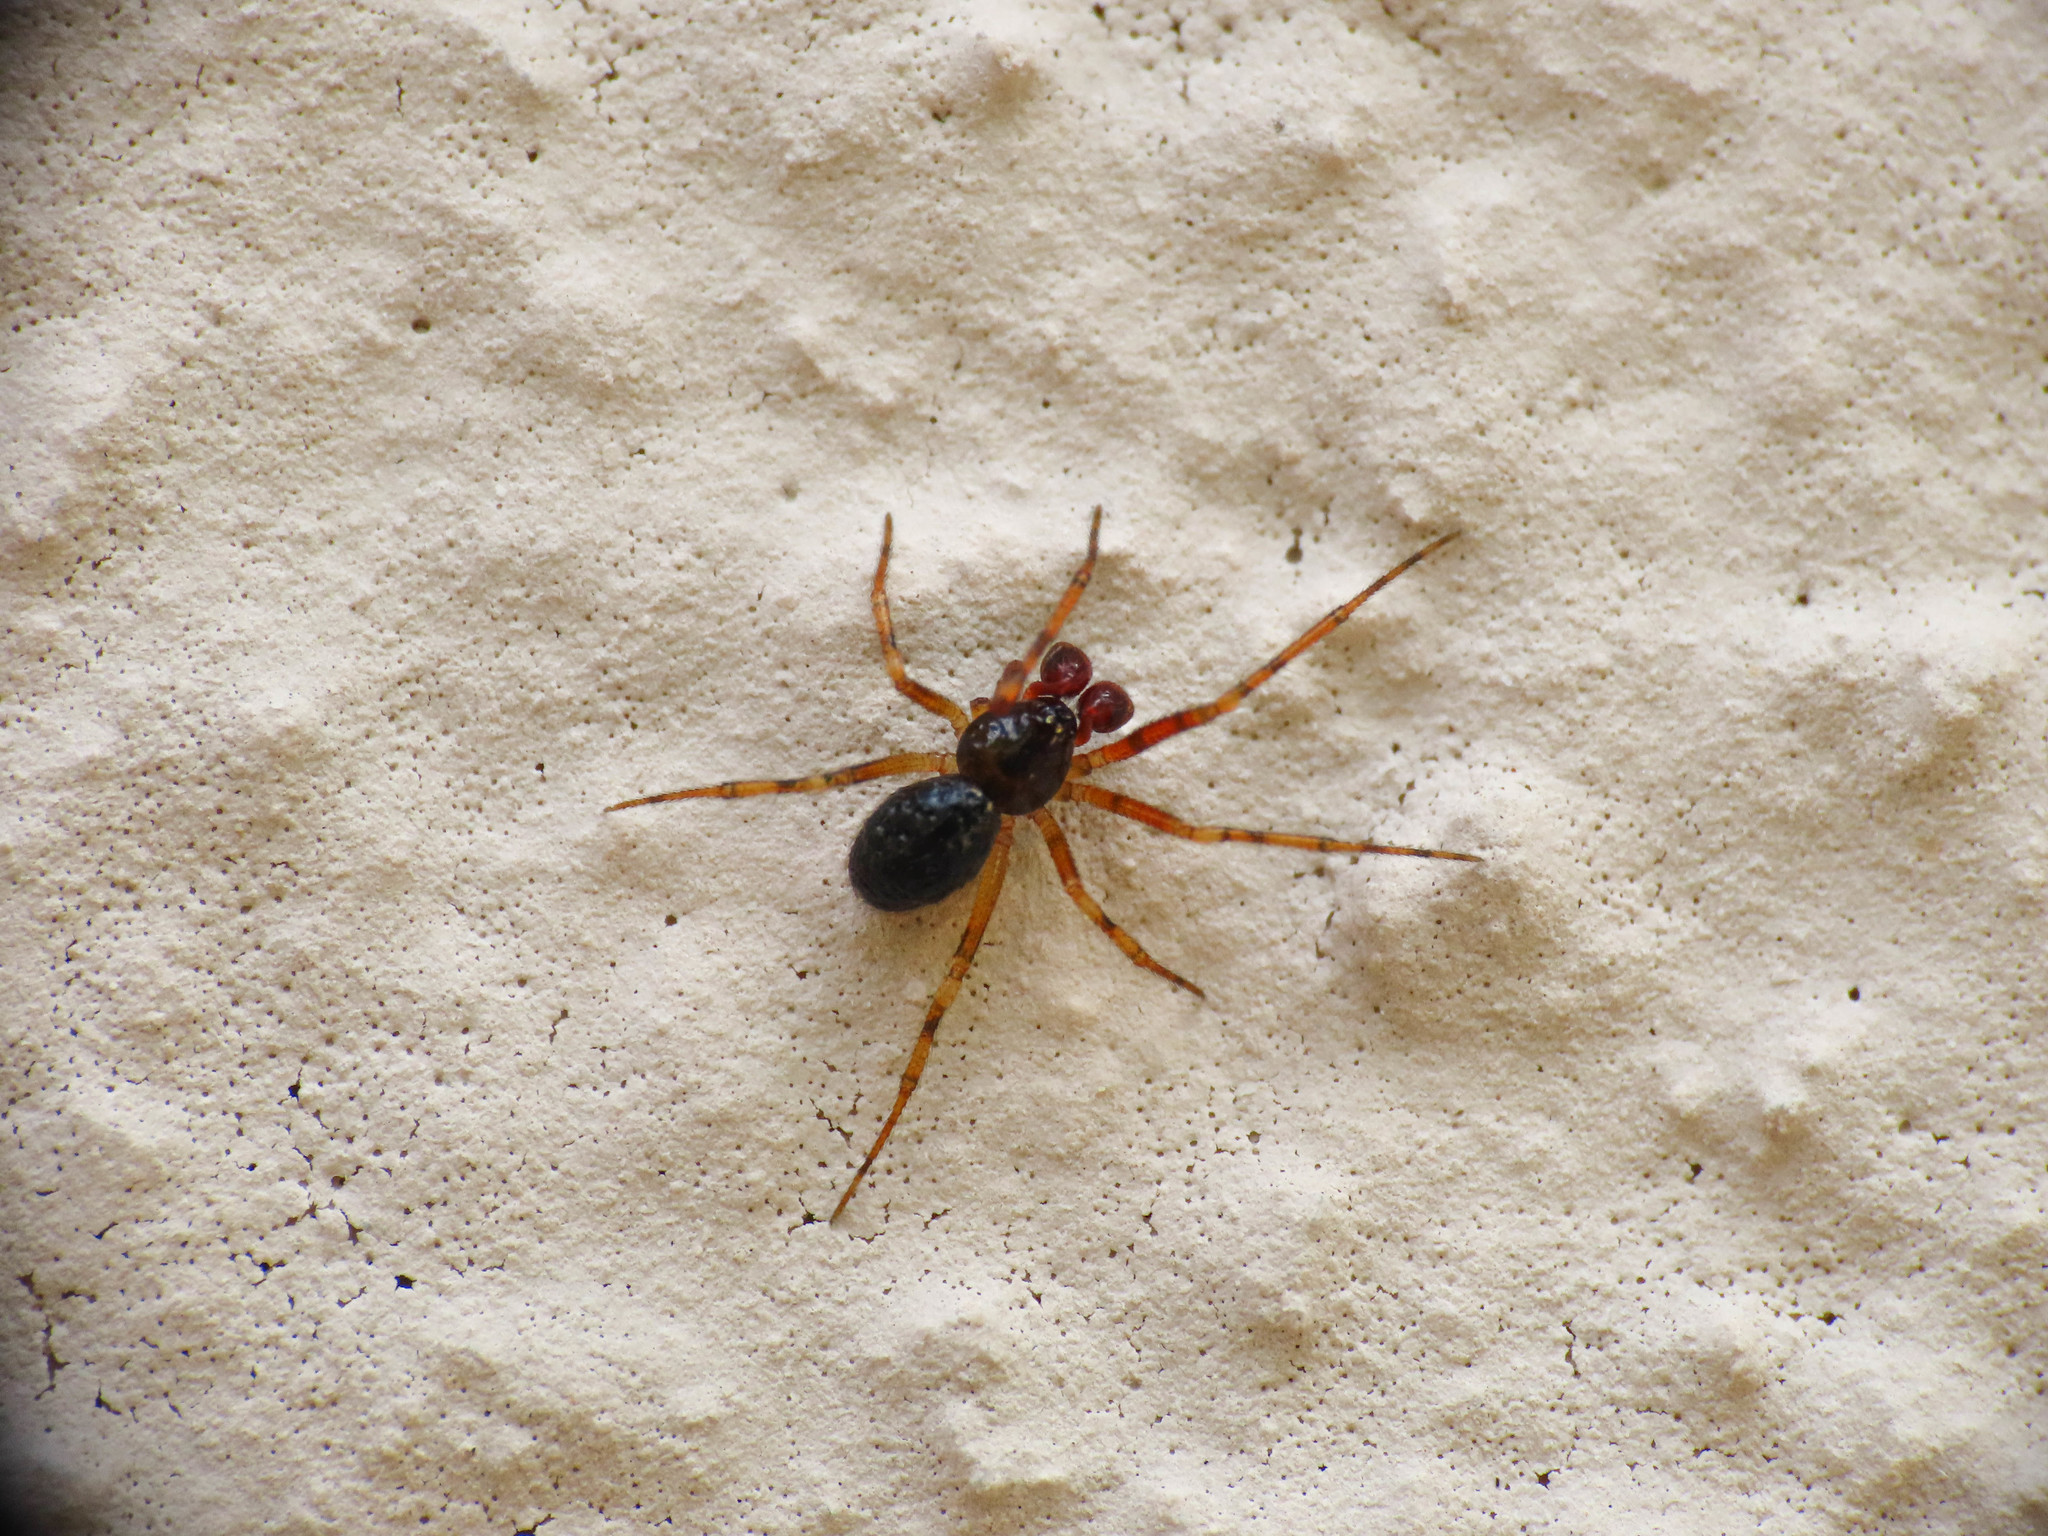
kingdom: Animalia
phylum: Arthropoda
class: Arachnida
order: Araneae
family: Theridiidae
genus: Sardinidion
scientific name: Sardinidion blackwalli
